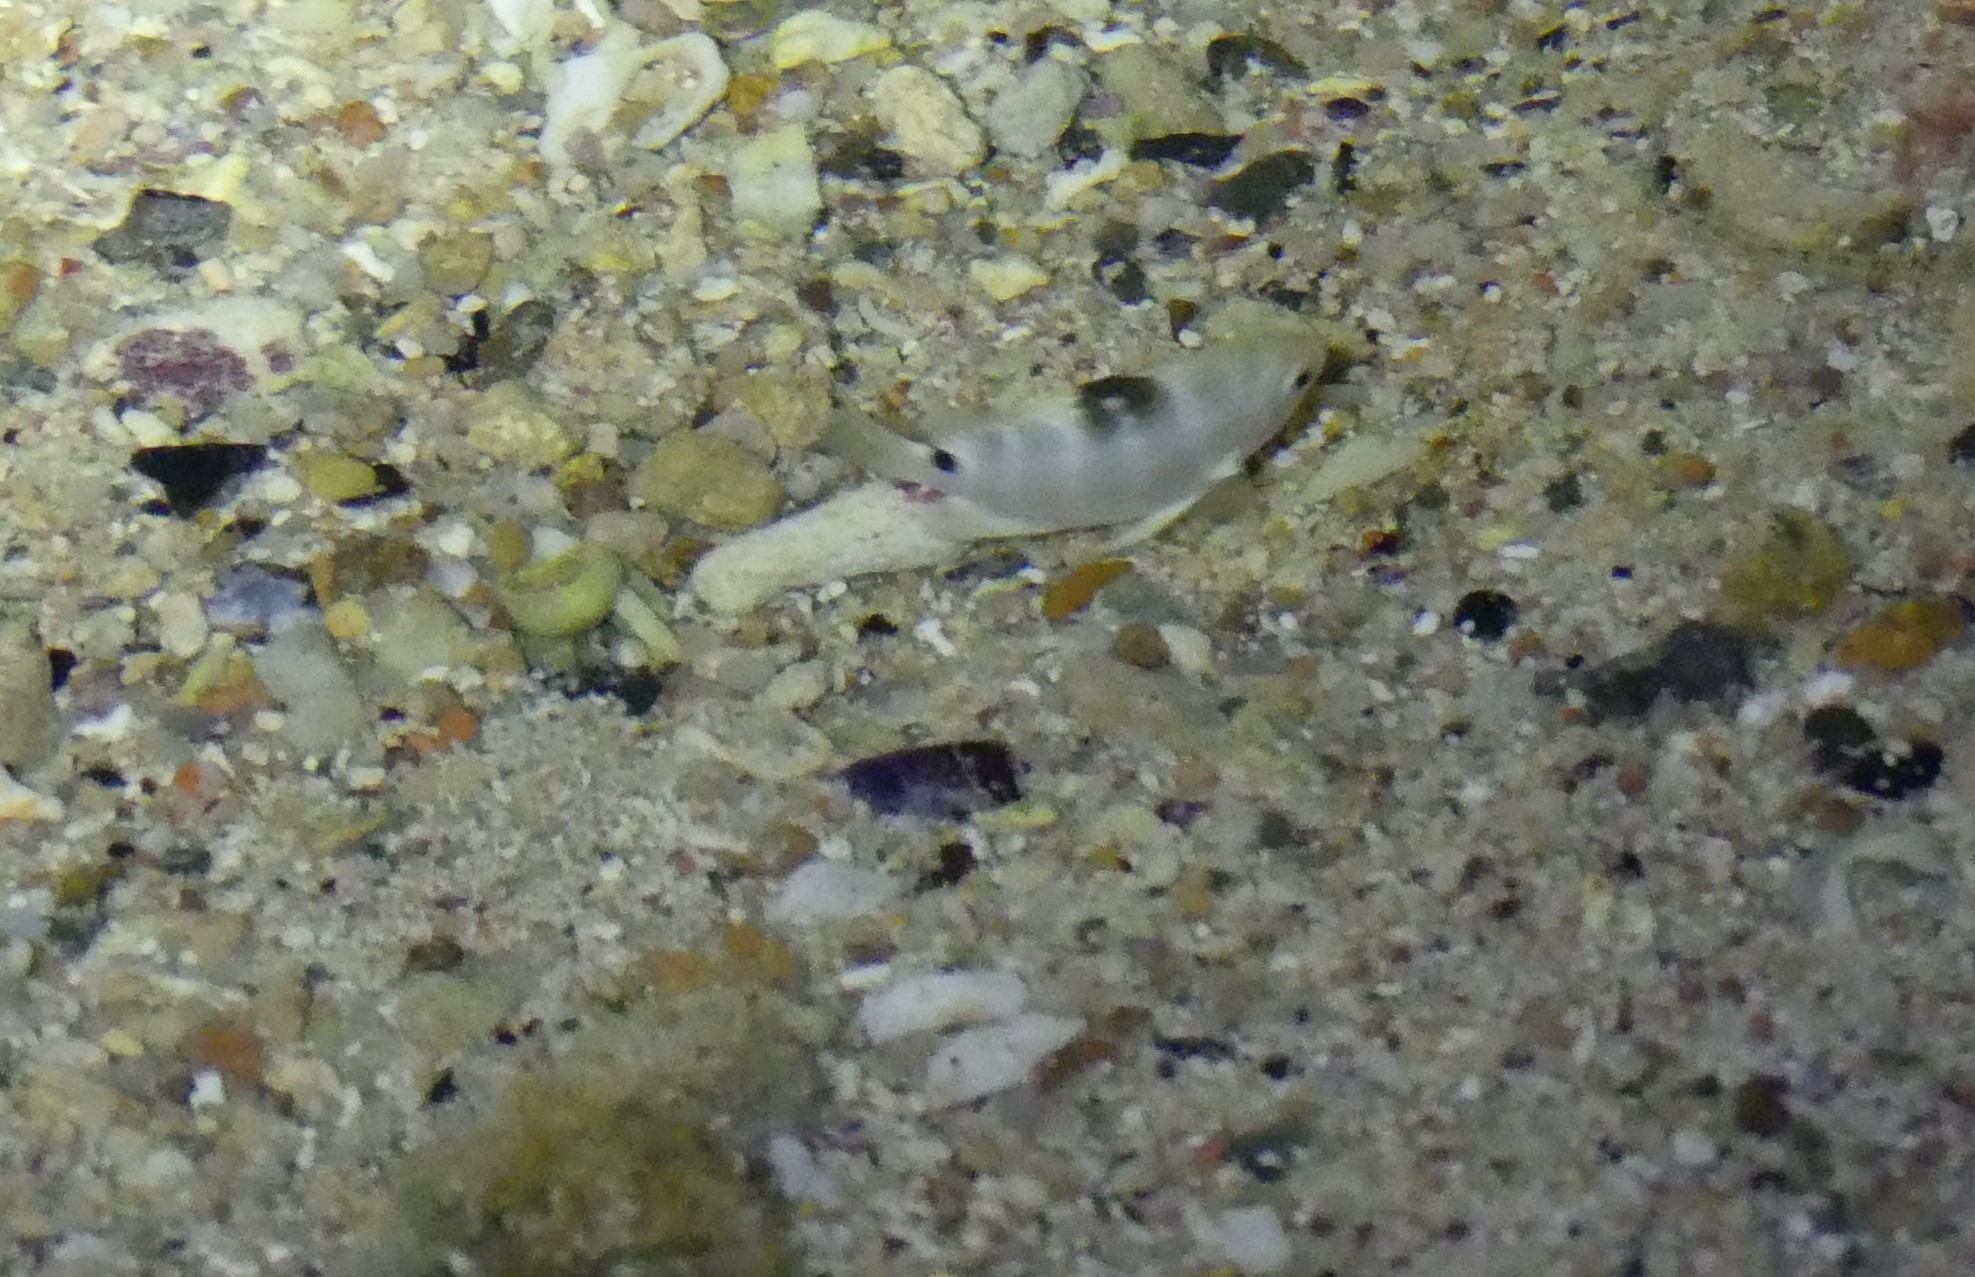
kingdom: Animalia
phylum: Chordata
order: Perciformes
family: Pomacentridae
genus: Abudefduf
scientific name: Abudefduf sordidus
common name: Blackspot sergeant
